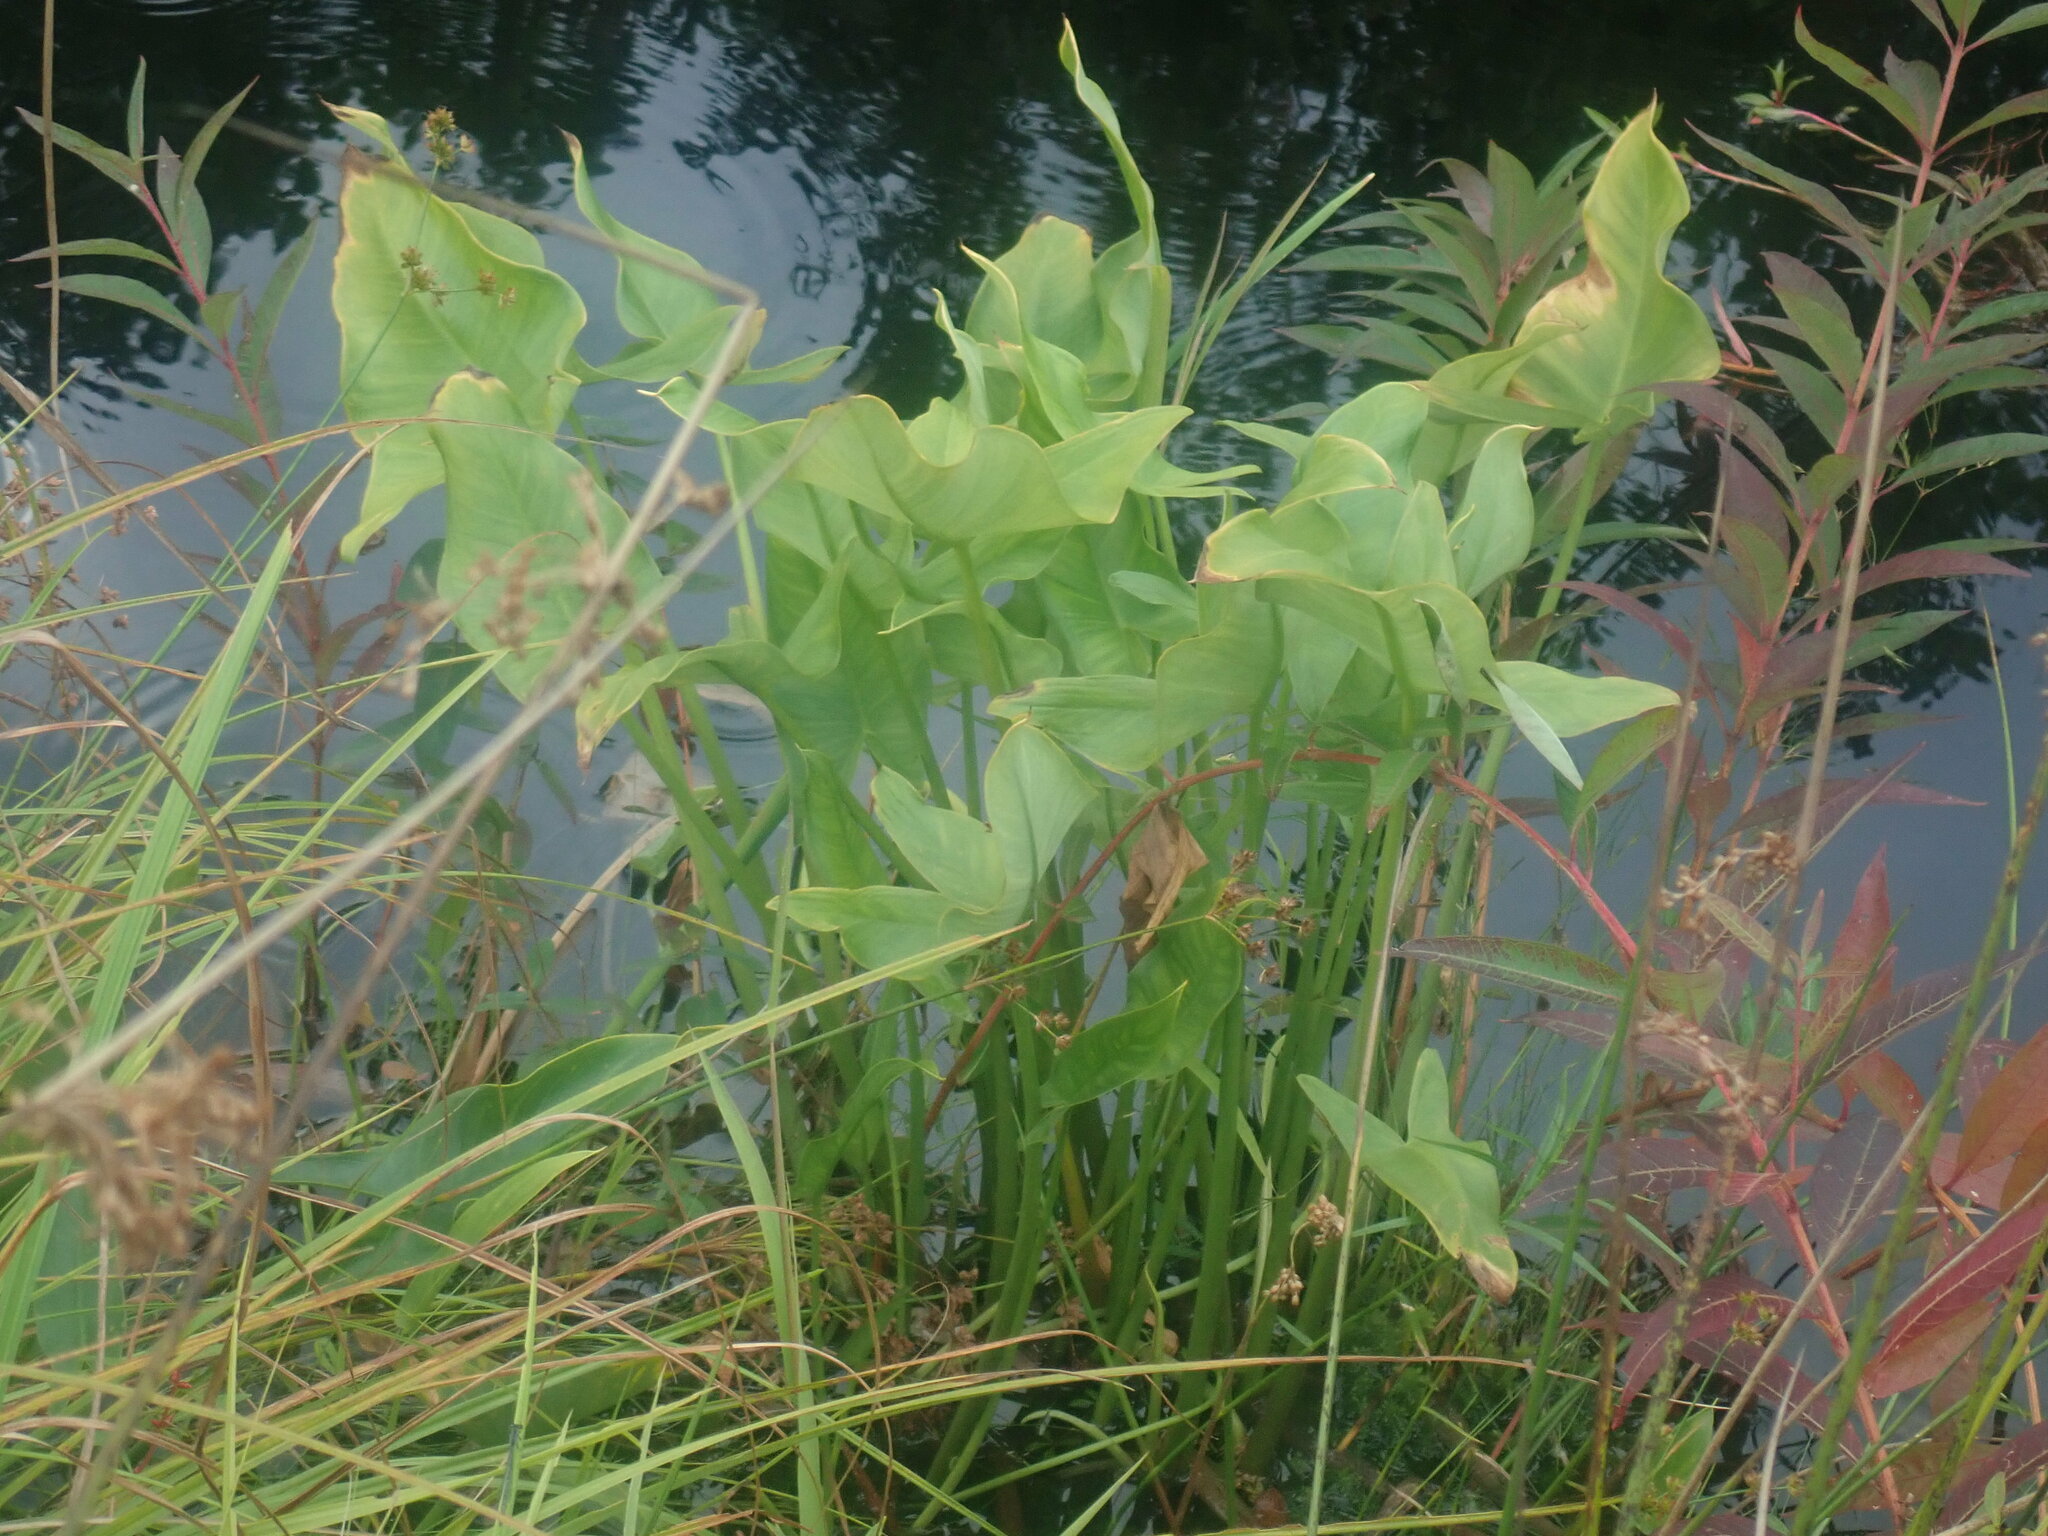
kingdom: Plantae
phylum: Tracheophyta
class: Liliopsida
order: Alismatales
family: Araceae
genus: Peltandra
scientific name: Peltandra virginica
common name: Arrow arum
